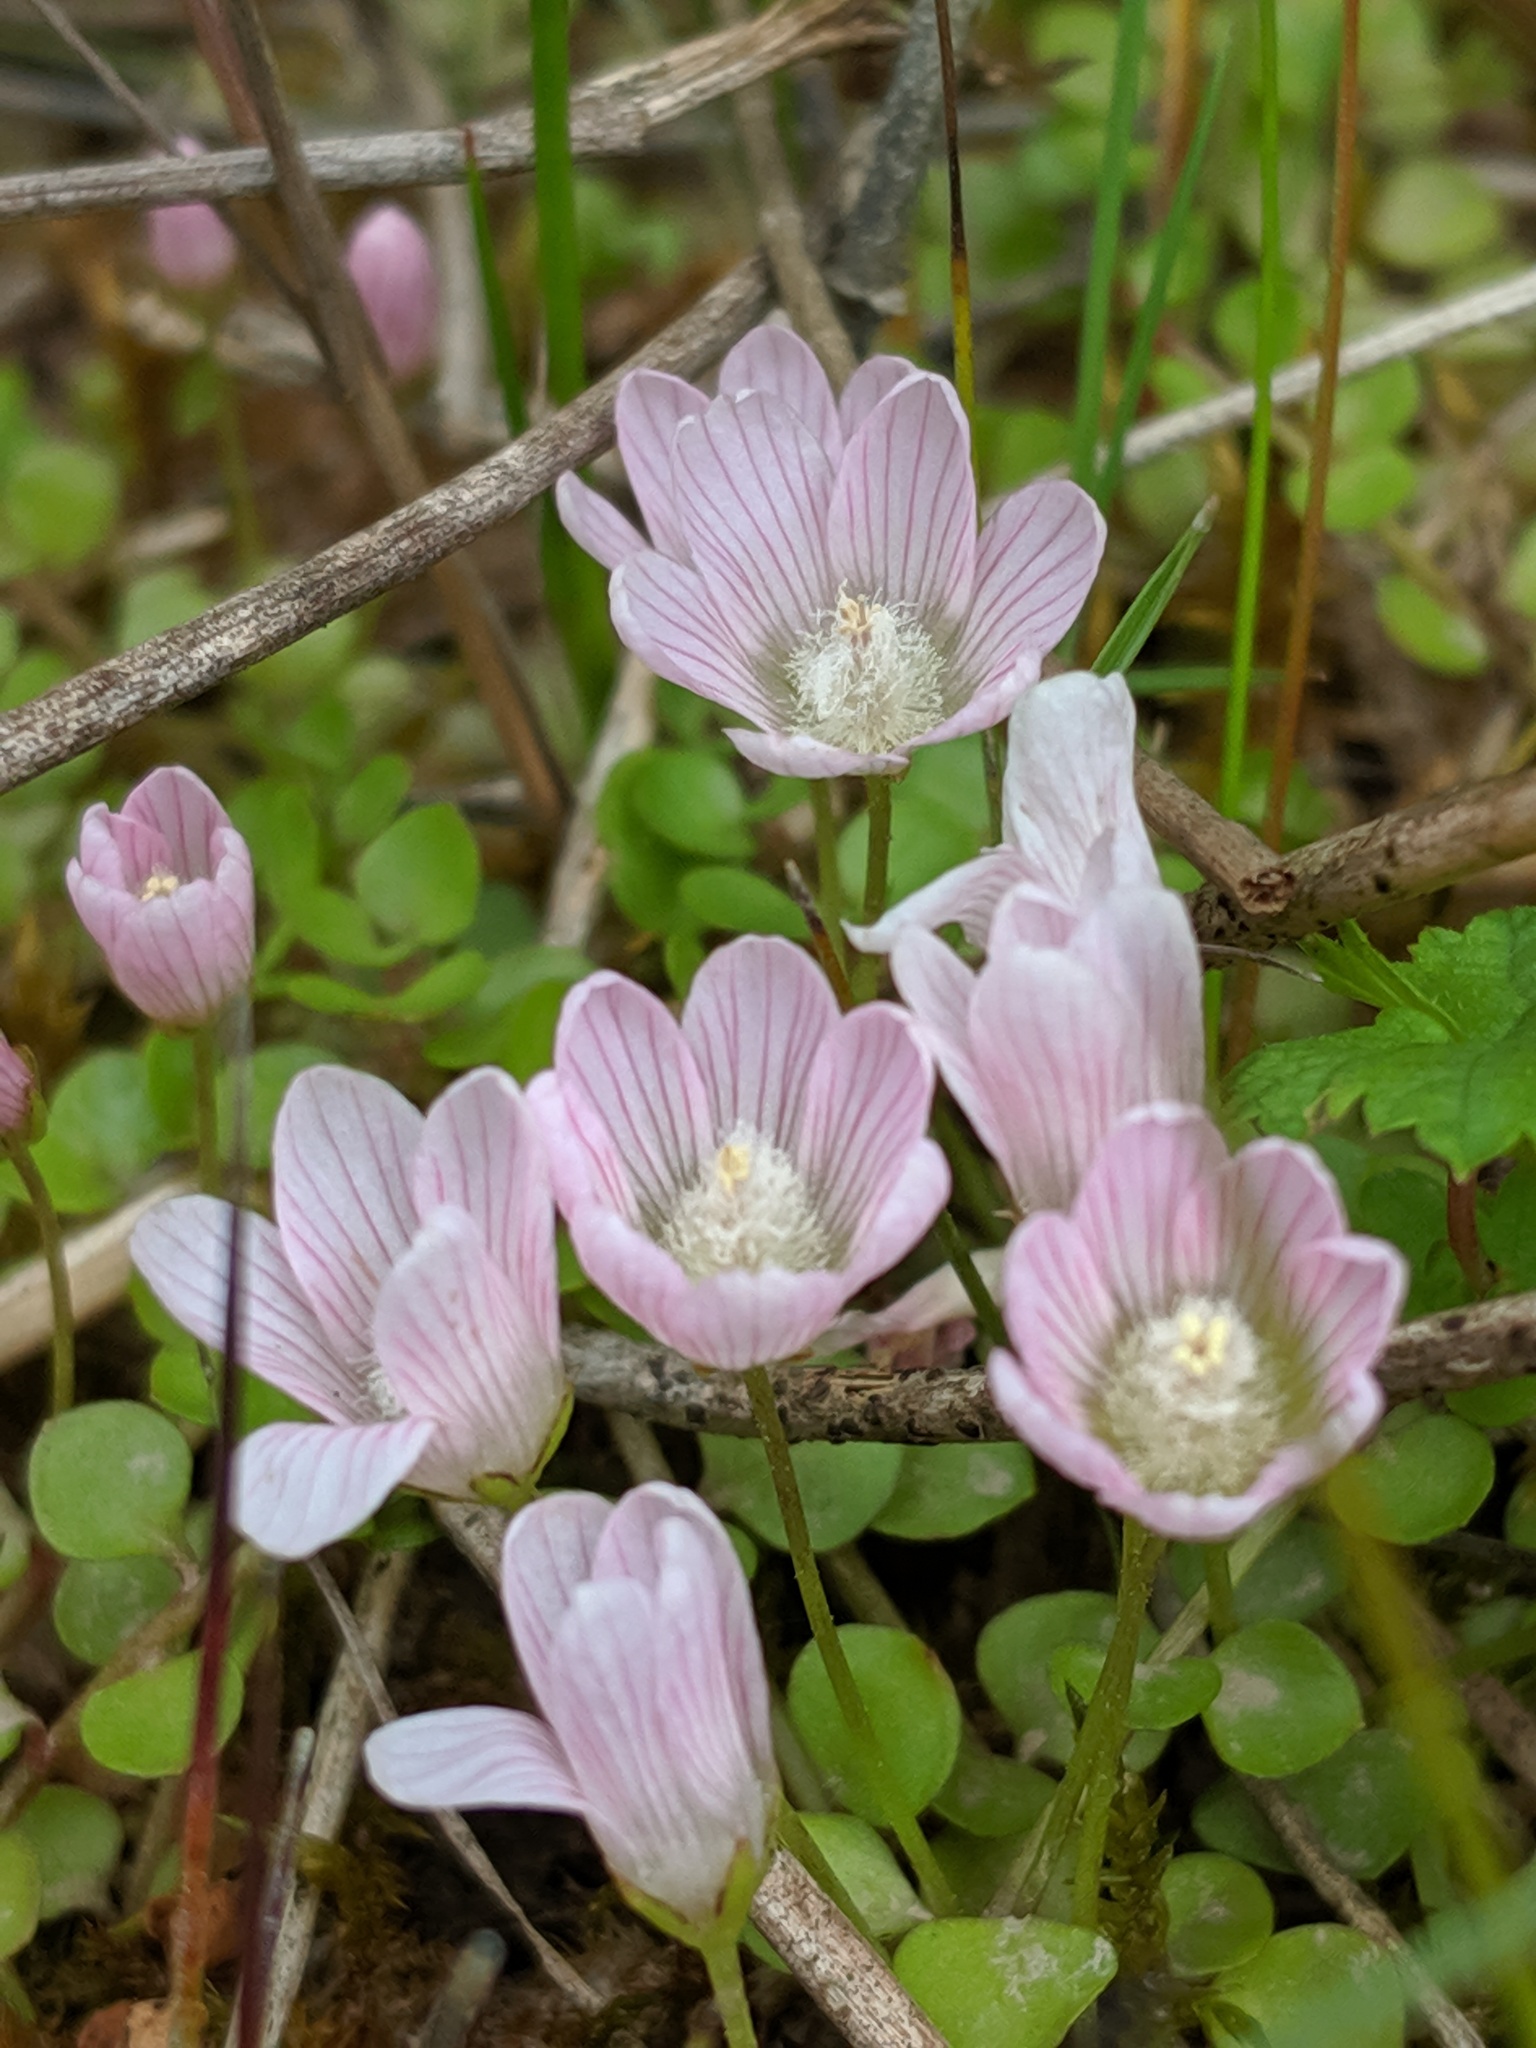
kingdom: Plantae
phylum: Tracheophyta
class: Magnoliopsida
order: Ericales
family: Primulaceae
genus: Lysimachia
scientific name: Lysimachia tenella
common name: European bog pimpernel
